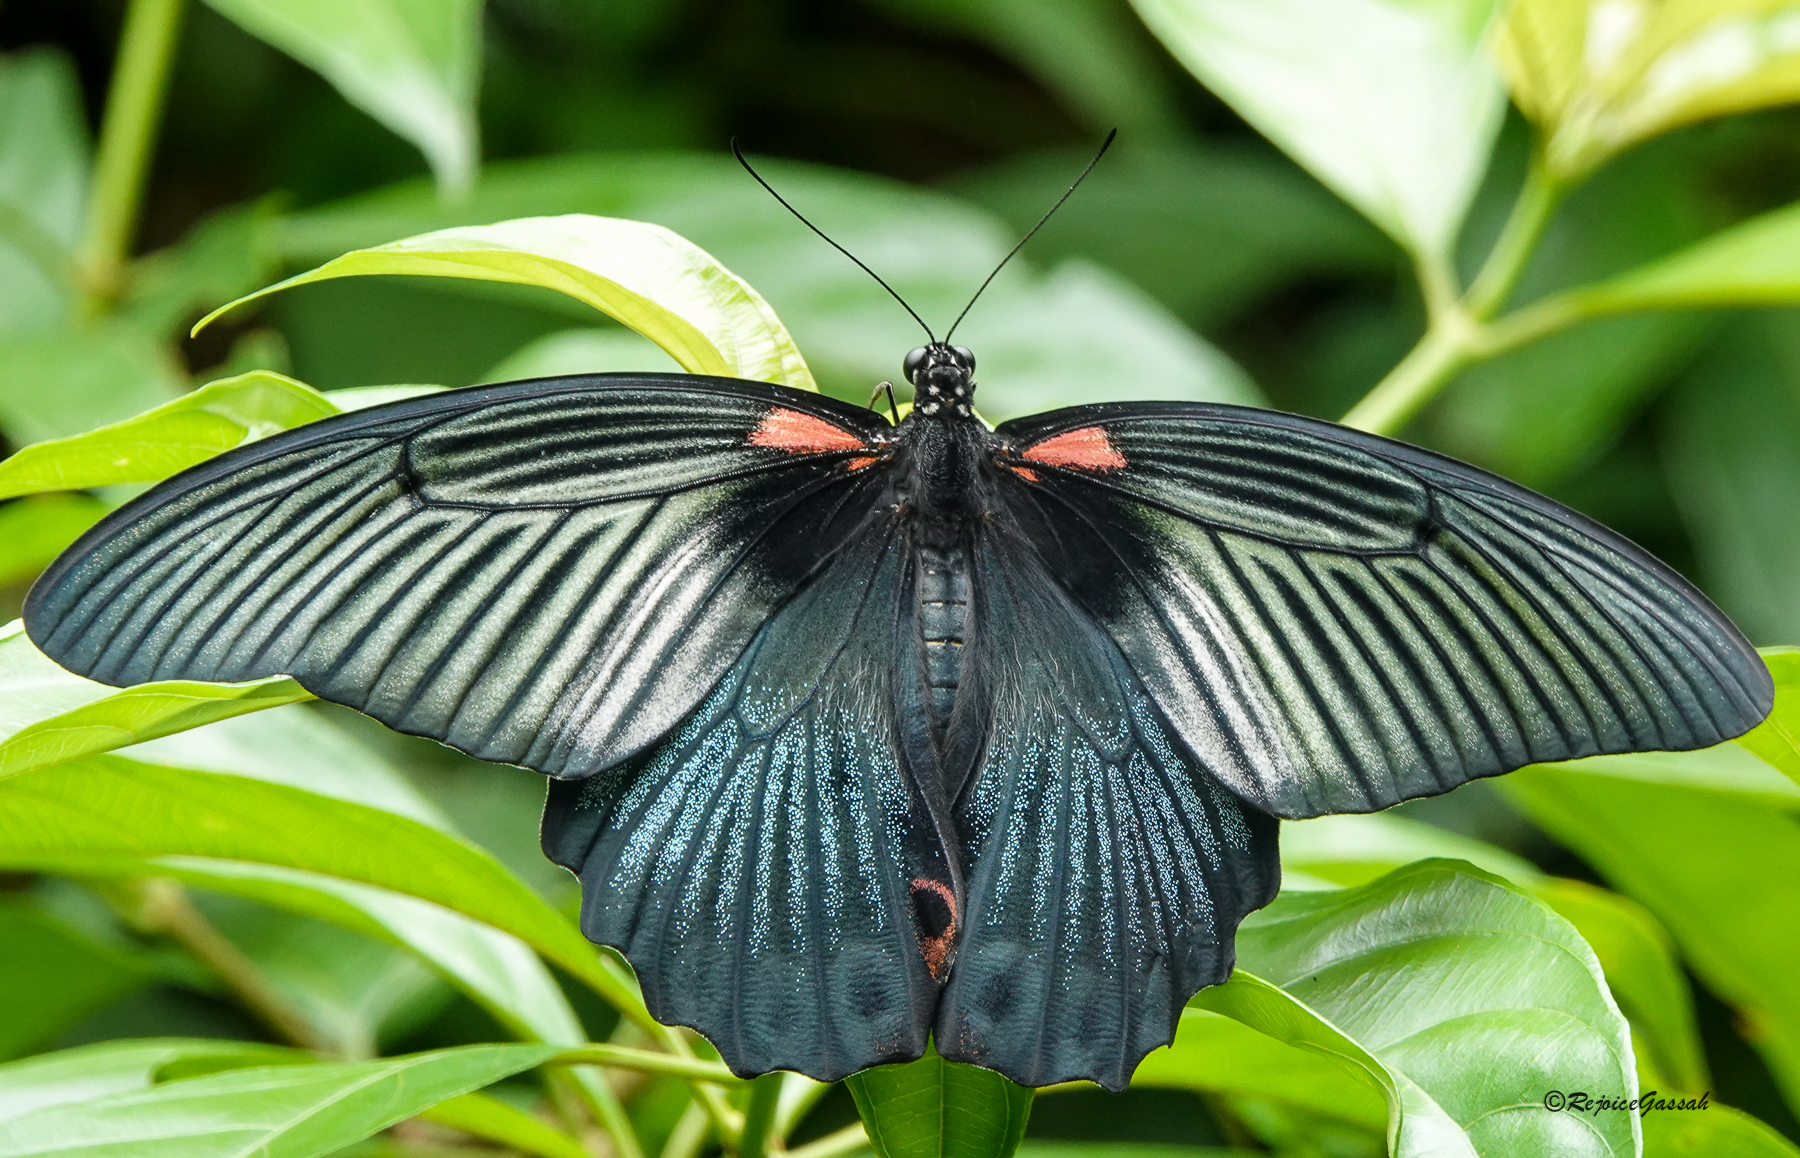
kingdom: Animalia
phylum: Arthropoda
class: Insecta
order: Lepidoptera
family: Papilionidae
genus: Papilio
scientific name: Papilio memnon
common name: Great mormon
